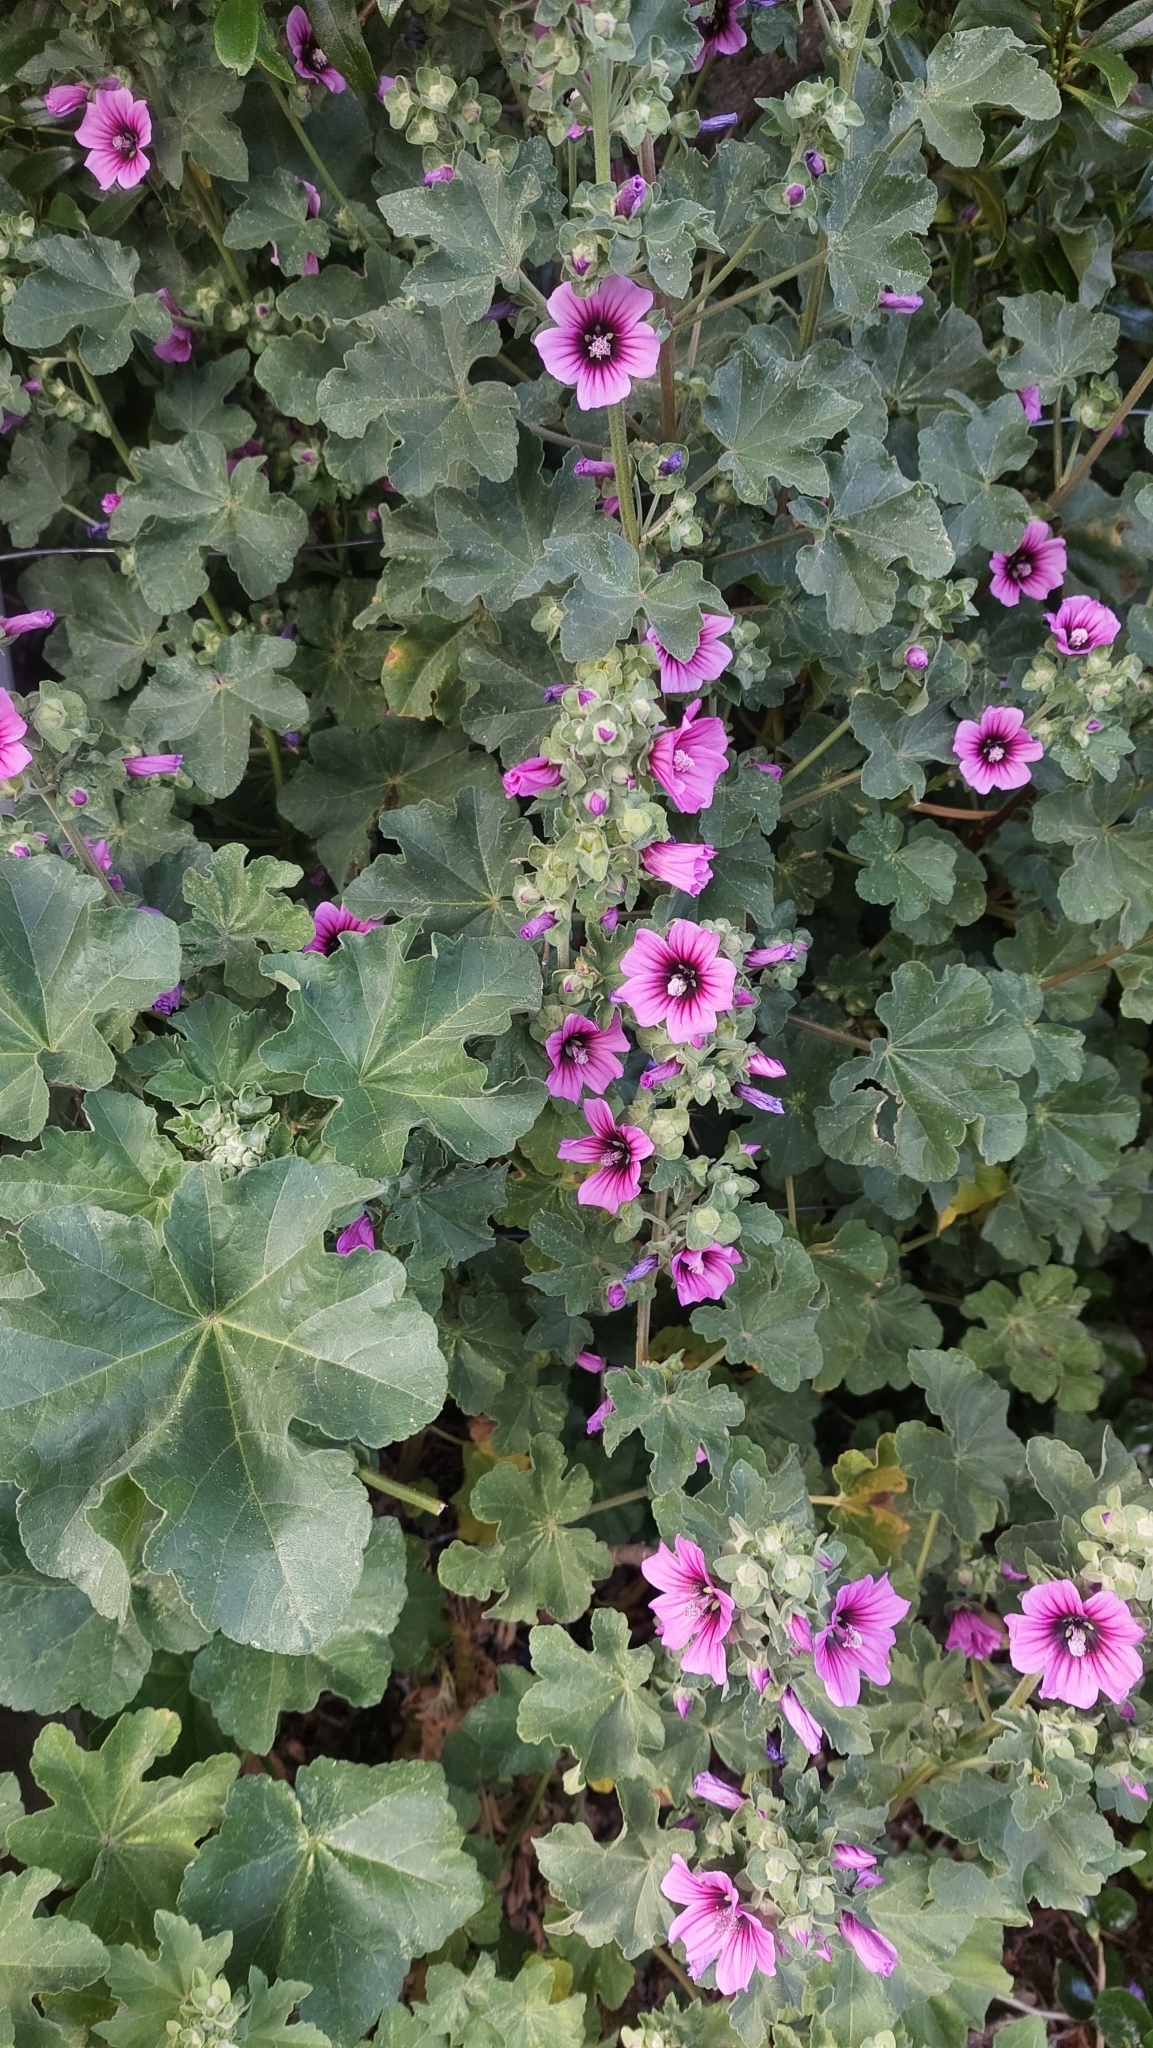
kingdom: Plantae
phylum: Tracheophyta
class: Magnoliopsida
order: Malvales
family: Malvaceae
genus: Malva
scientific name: Malva arborea
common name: Tree mallow
